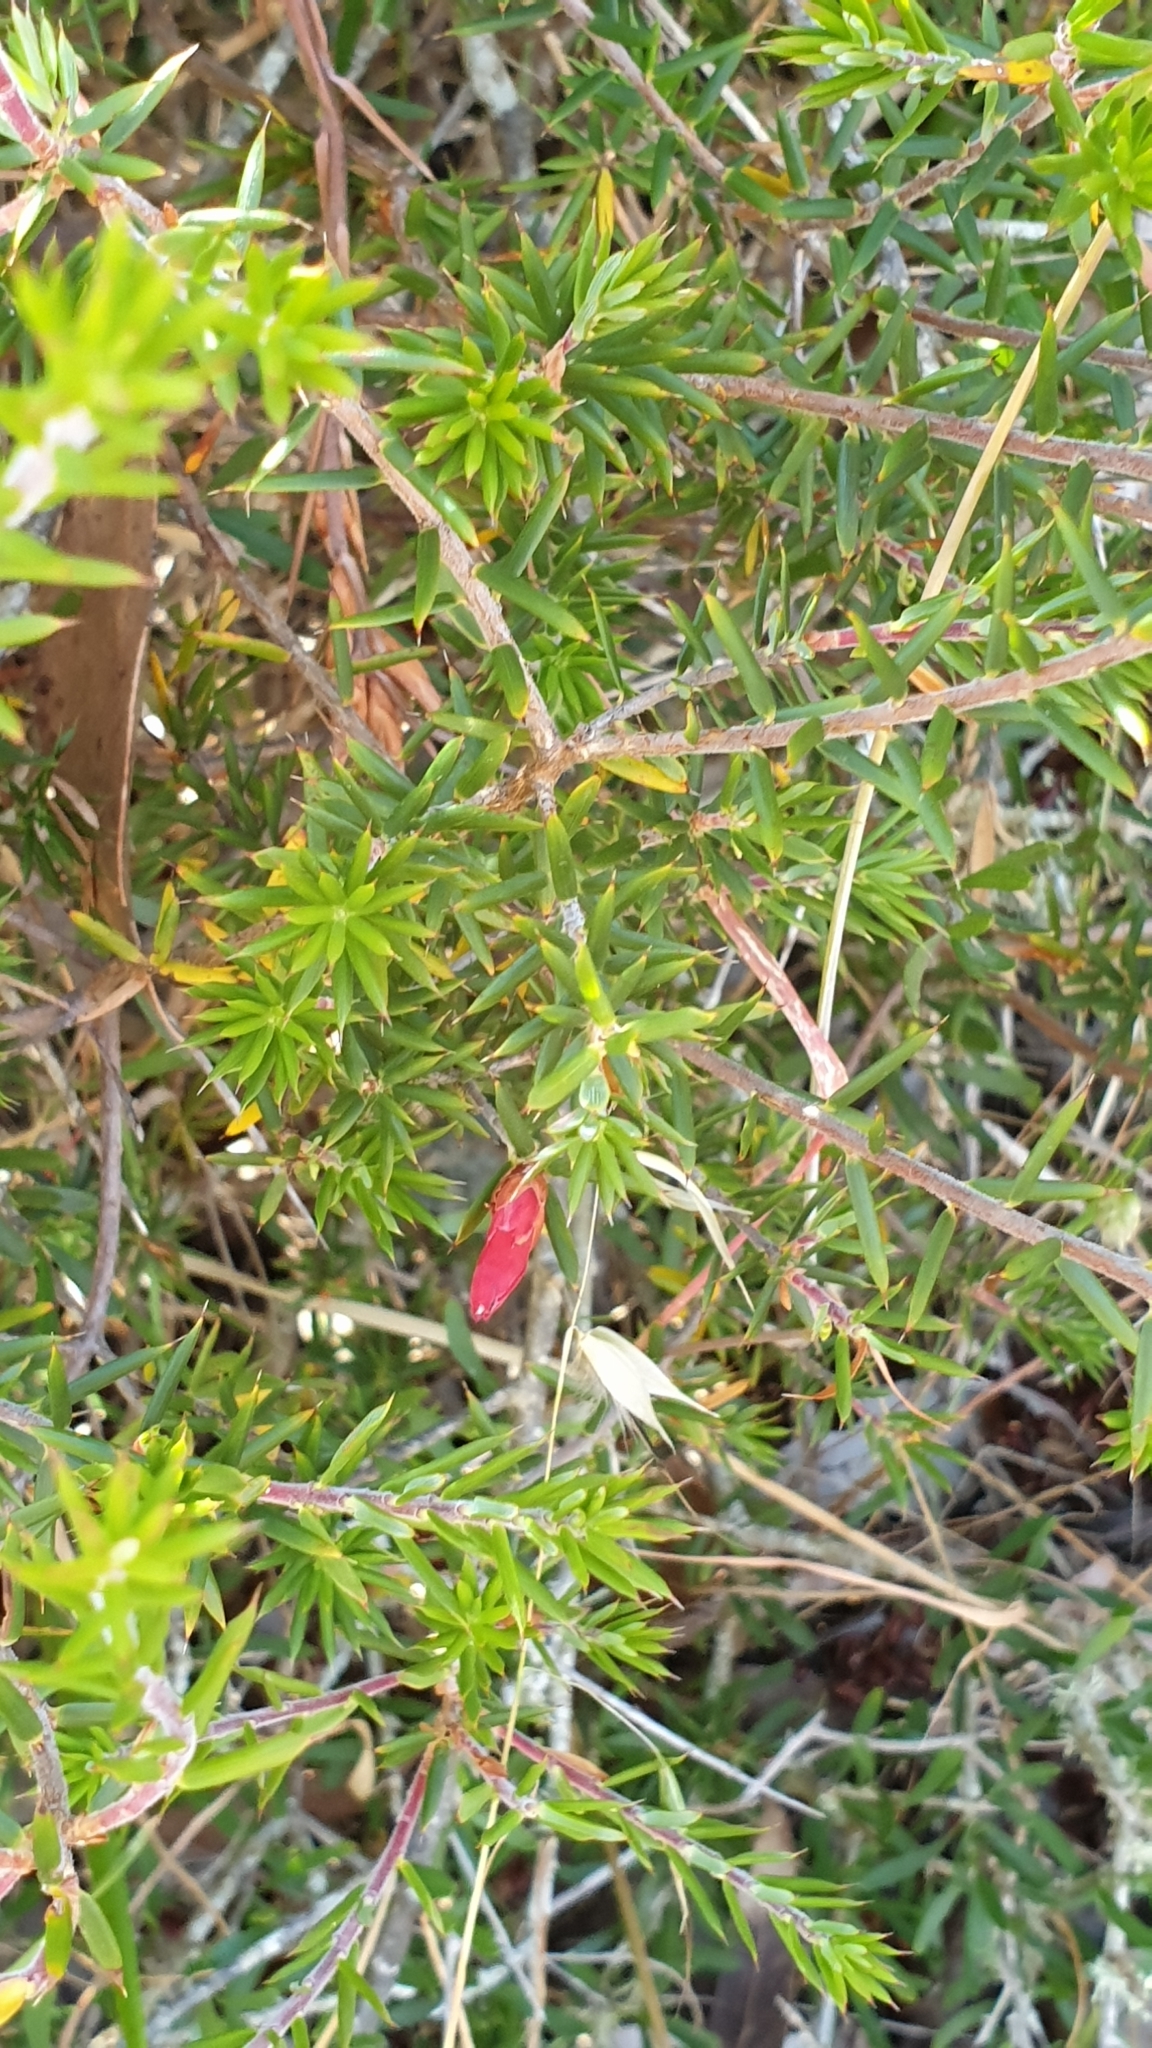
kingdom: Plantae
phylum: Tracheophyta
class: Magnoliopsida
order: Ericales
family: Ericaceae
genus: Stenanthera
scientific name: Stenanthera conostephioides
